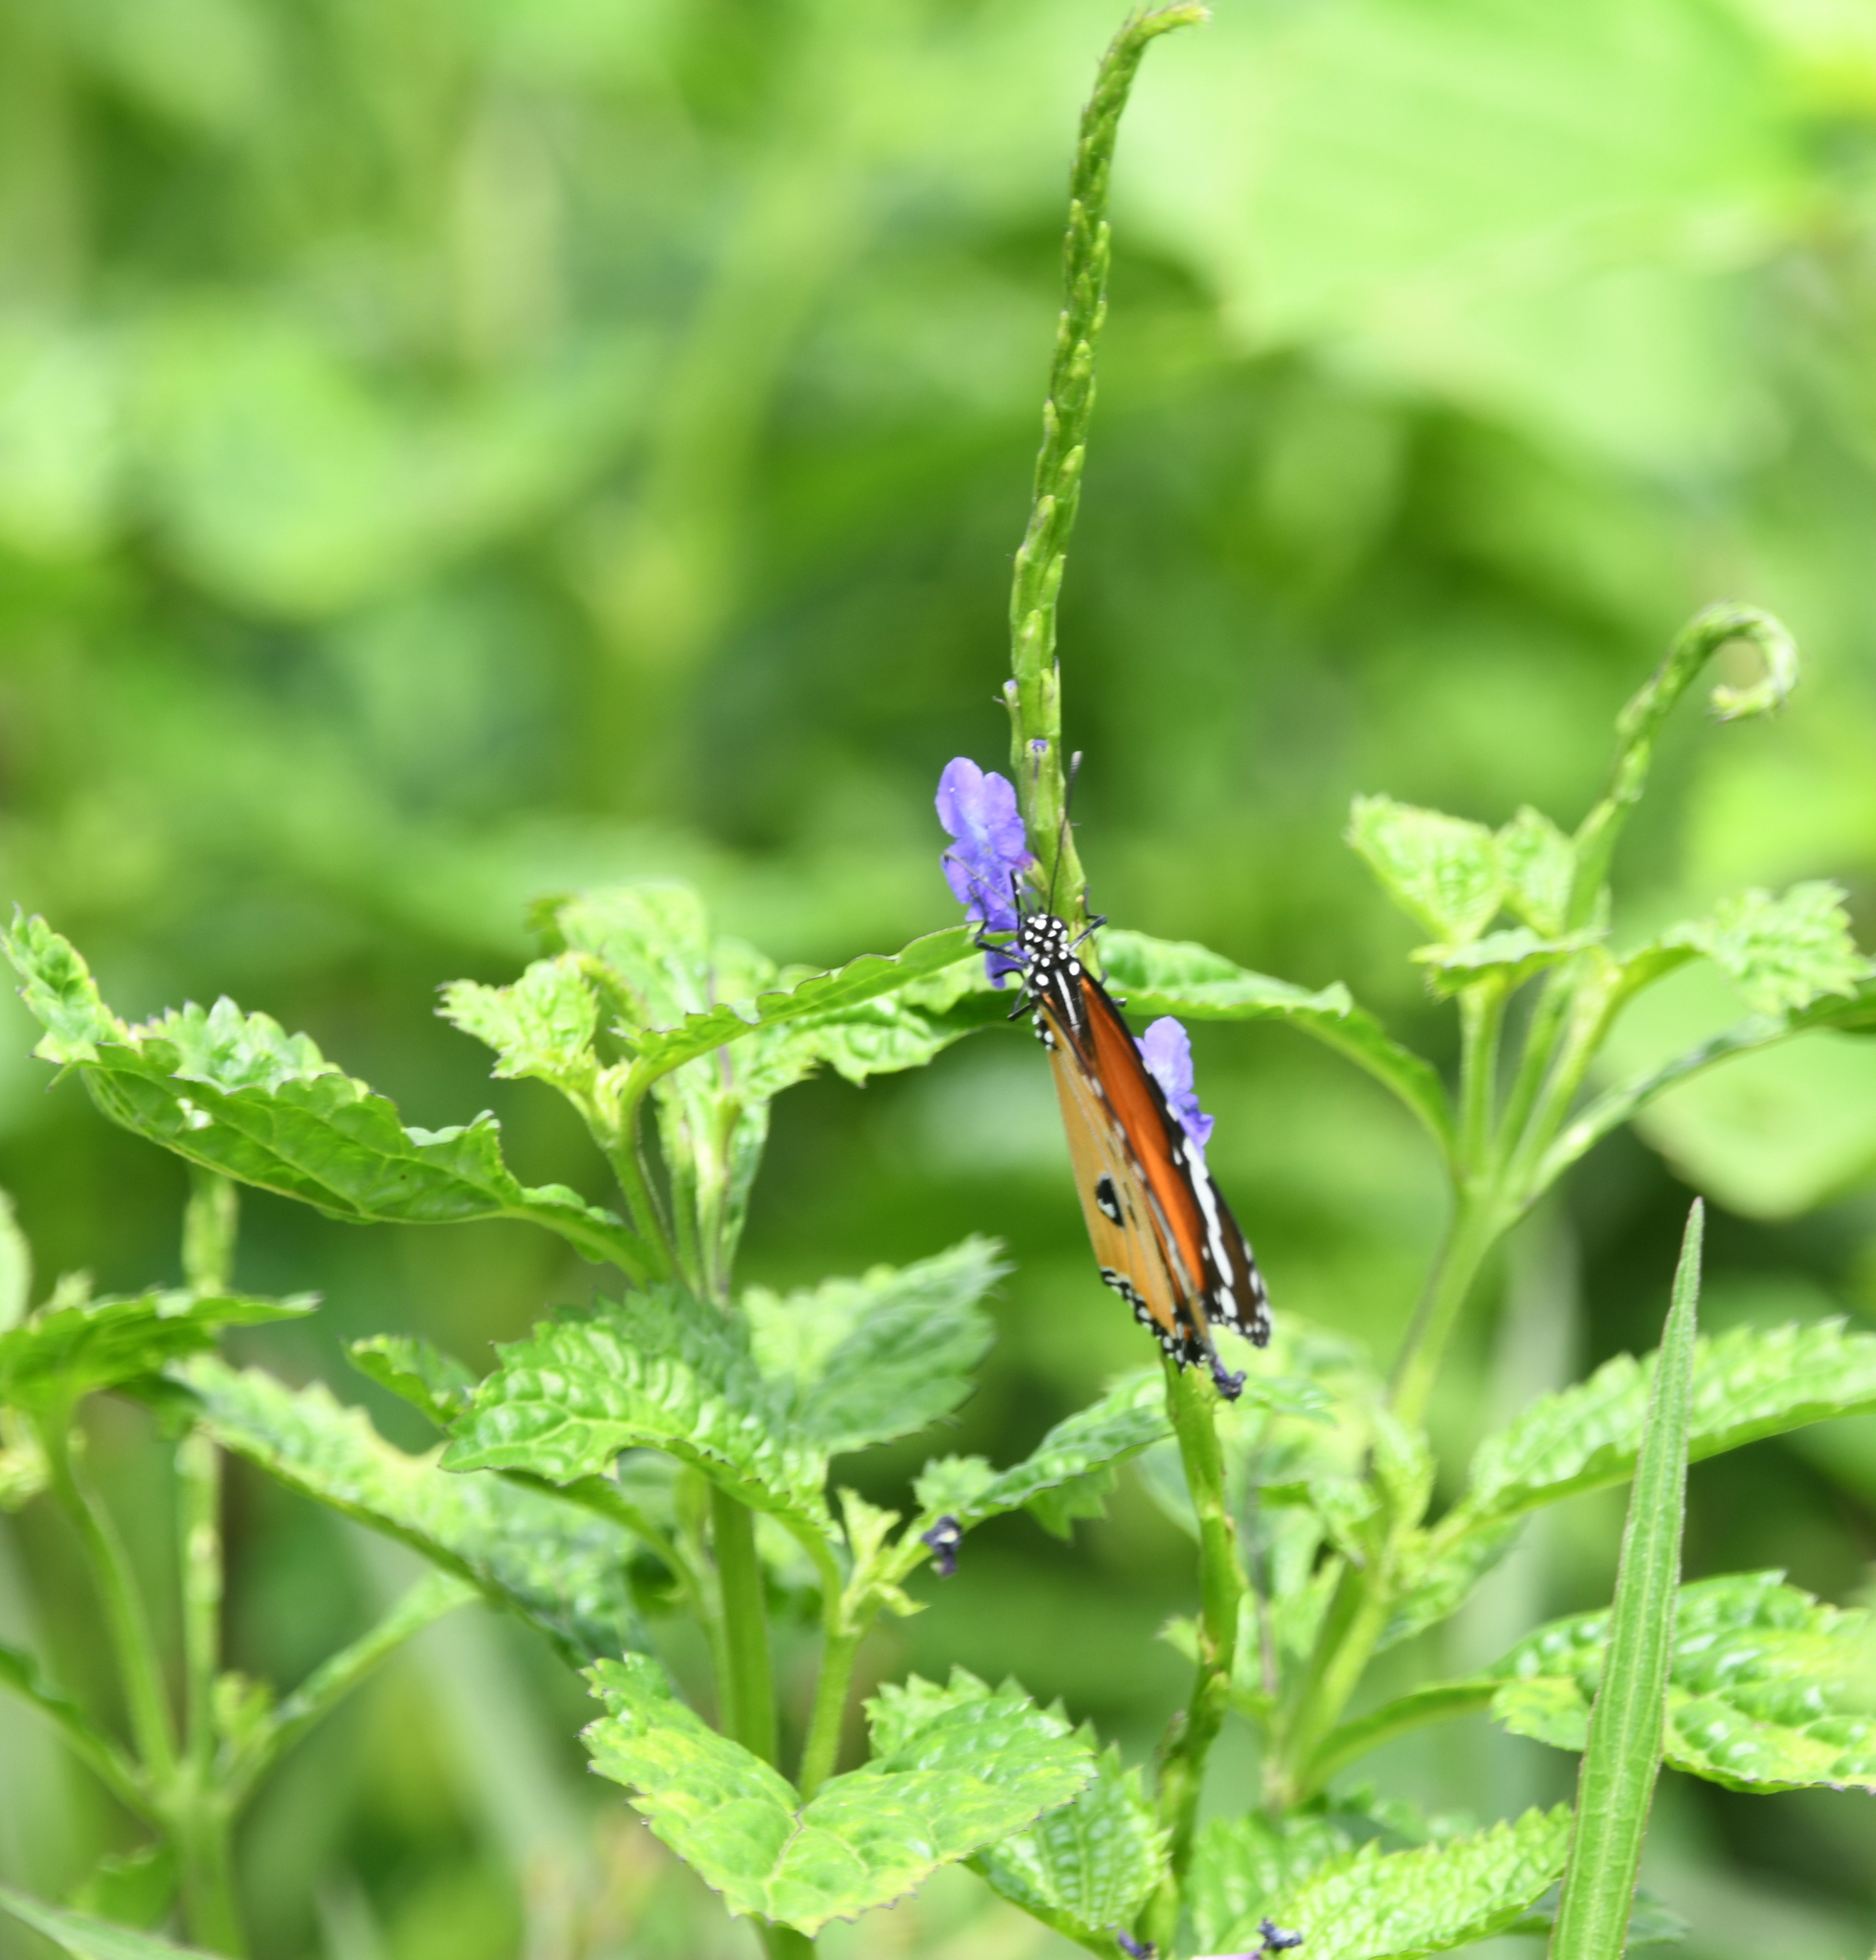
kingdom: Animalia
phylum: Arthropoda
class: Insecta
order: Lepidoptera
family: Nymphalidae
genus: Danaus
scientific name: Danaus chrysippus
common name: Plain tiger
